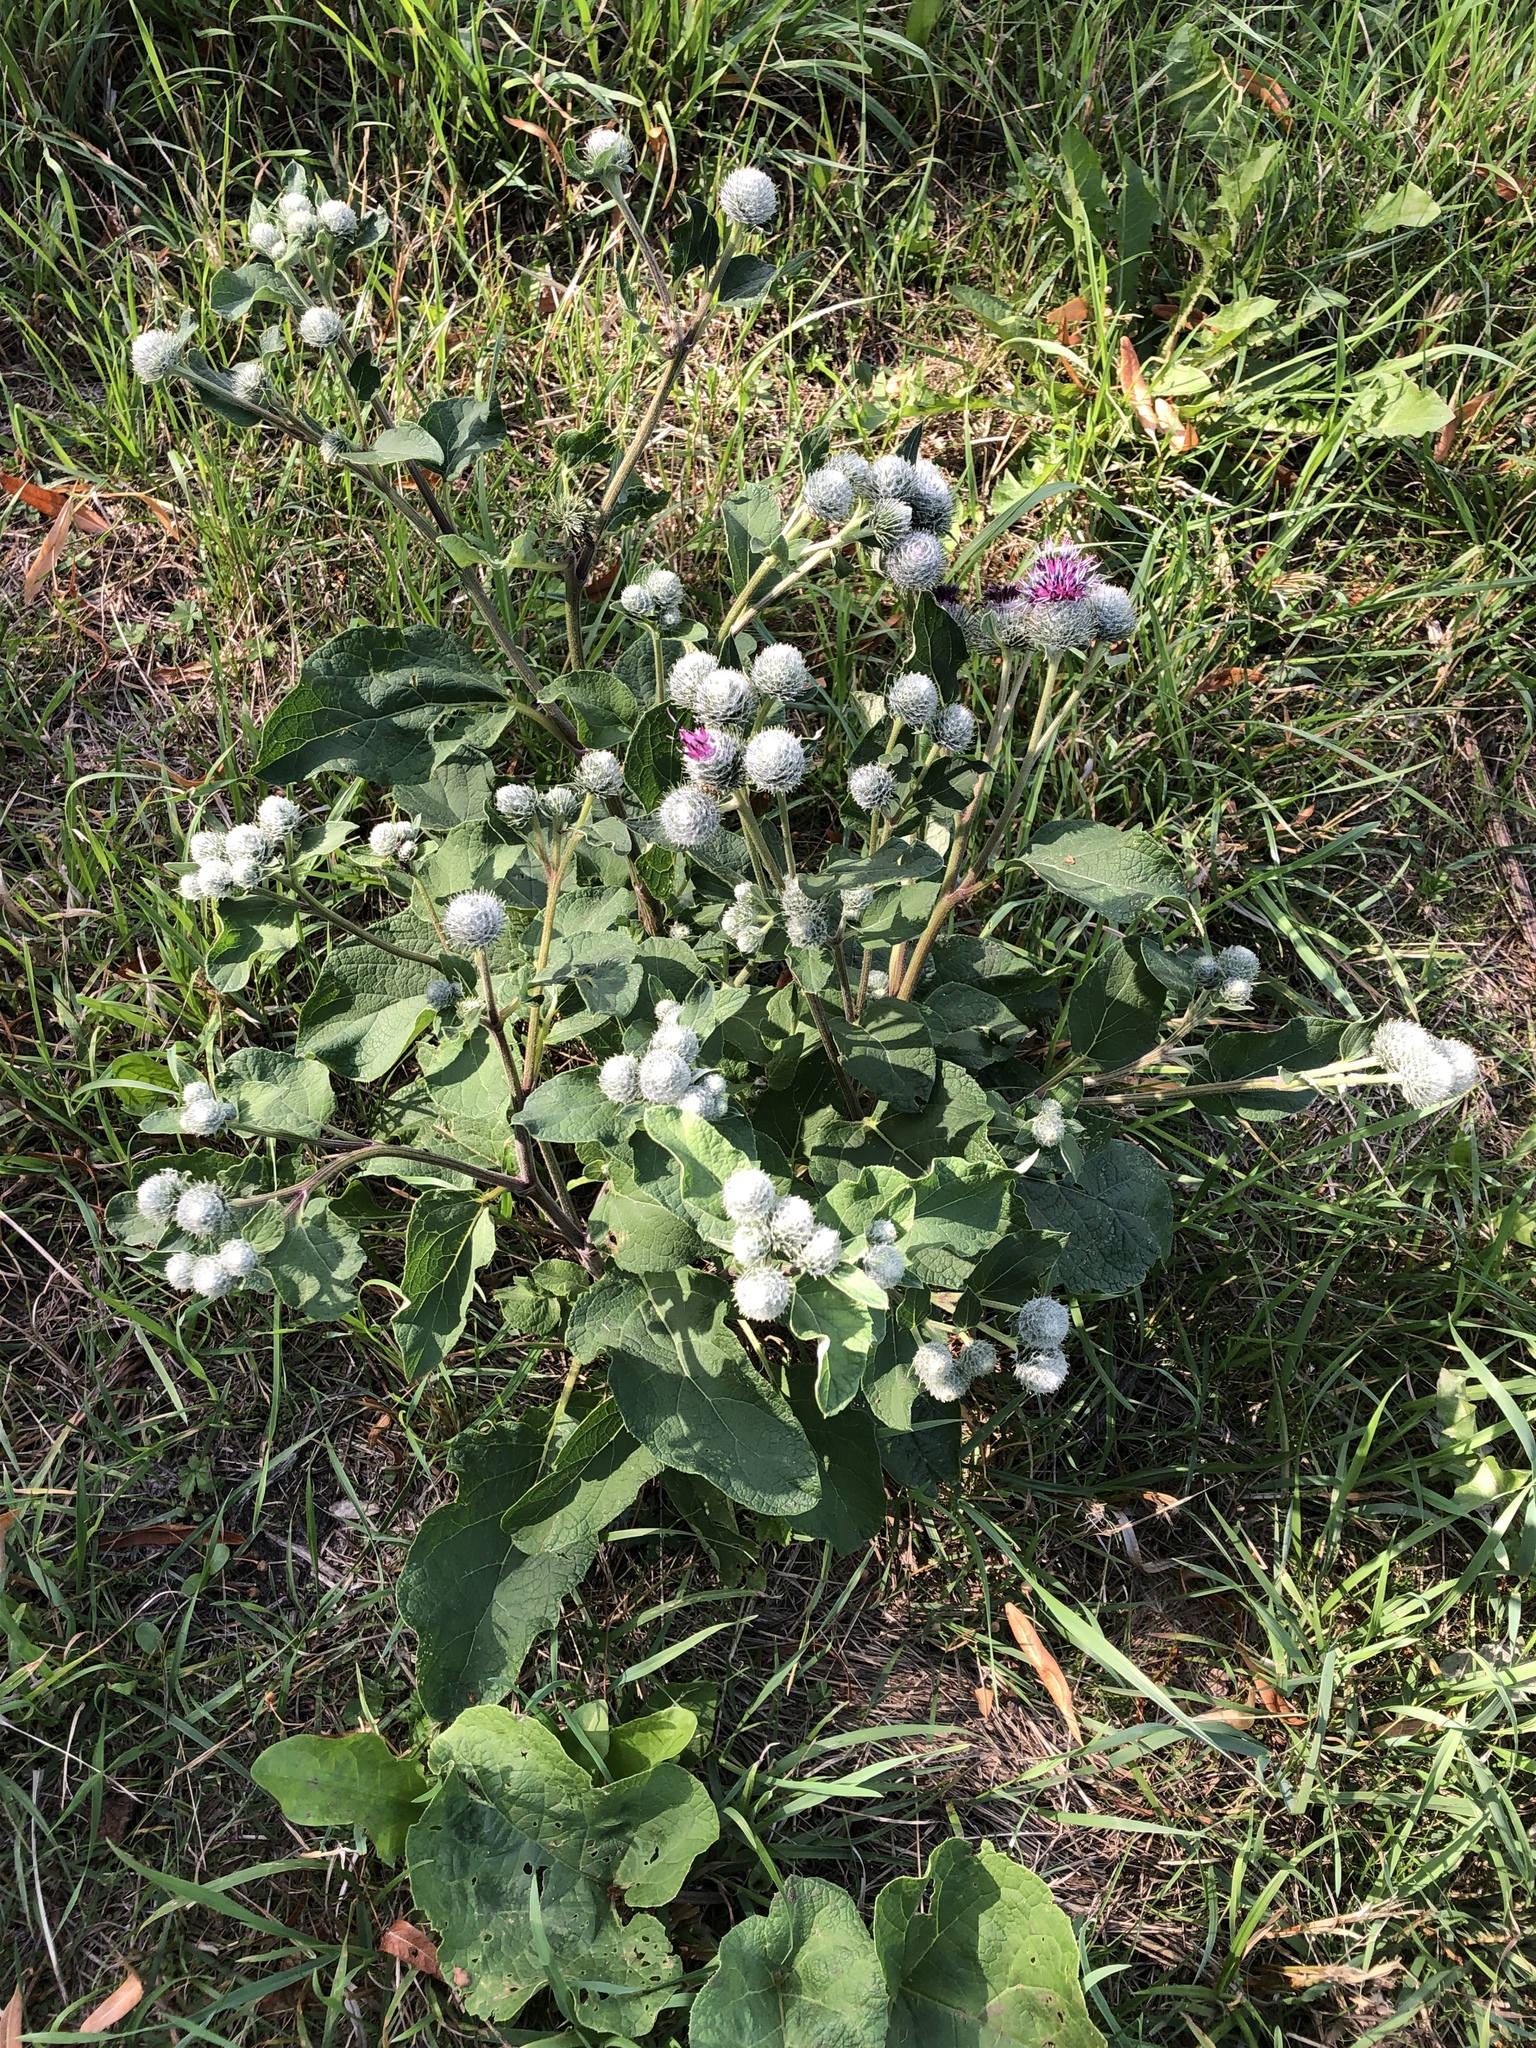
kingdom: Plantae
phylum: Tracheophyta
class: Magnoliopsida
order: Asterales
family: Asteraceae
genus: Arctium
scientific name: Arctium tomentosum
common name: Woolly burdock
